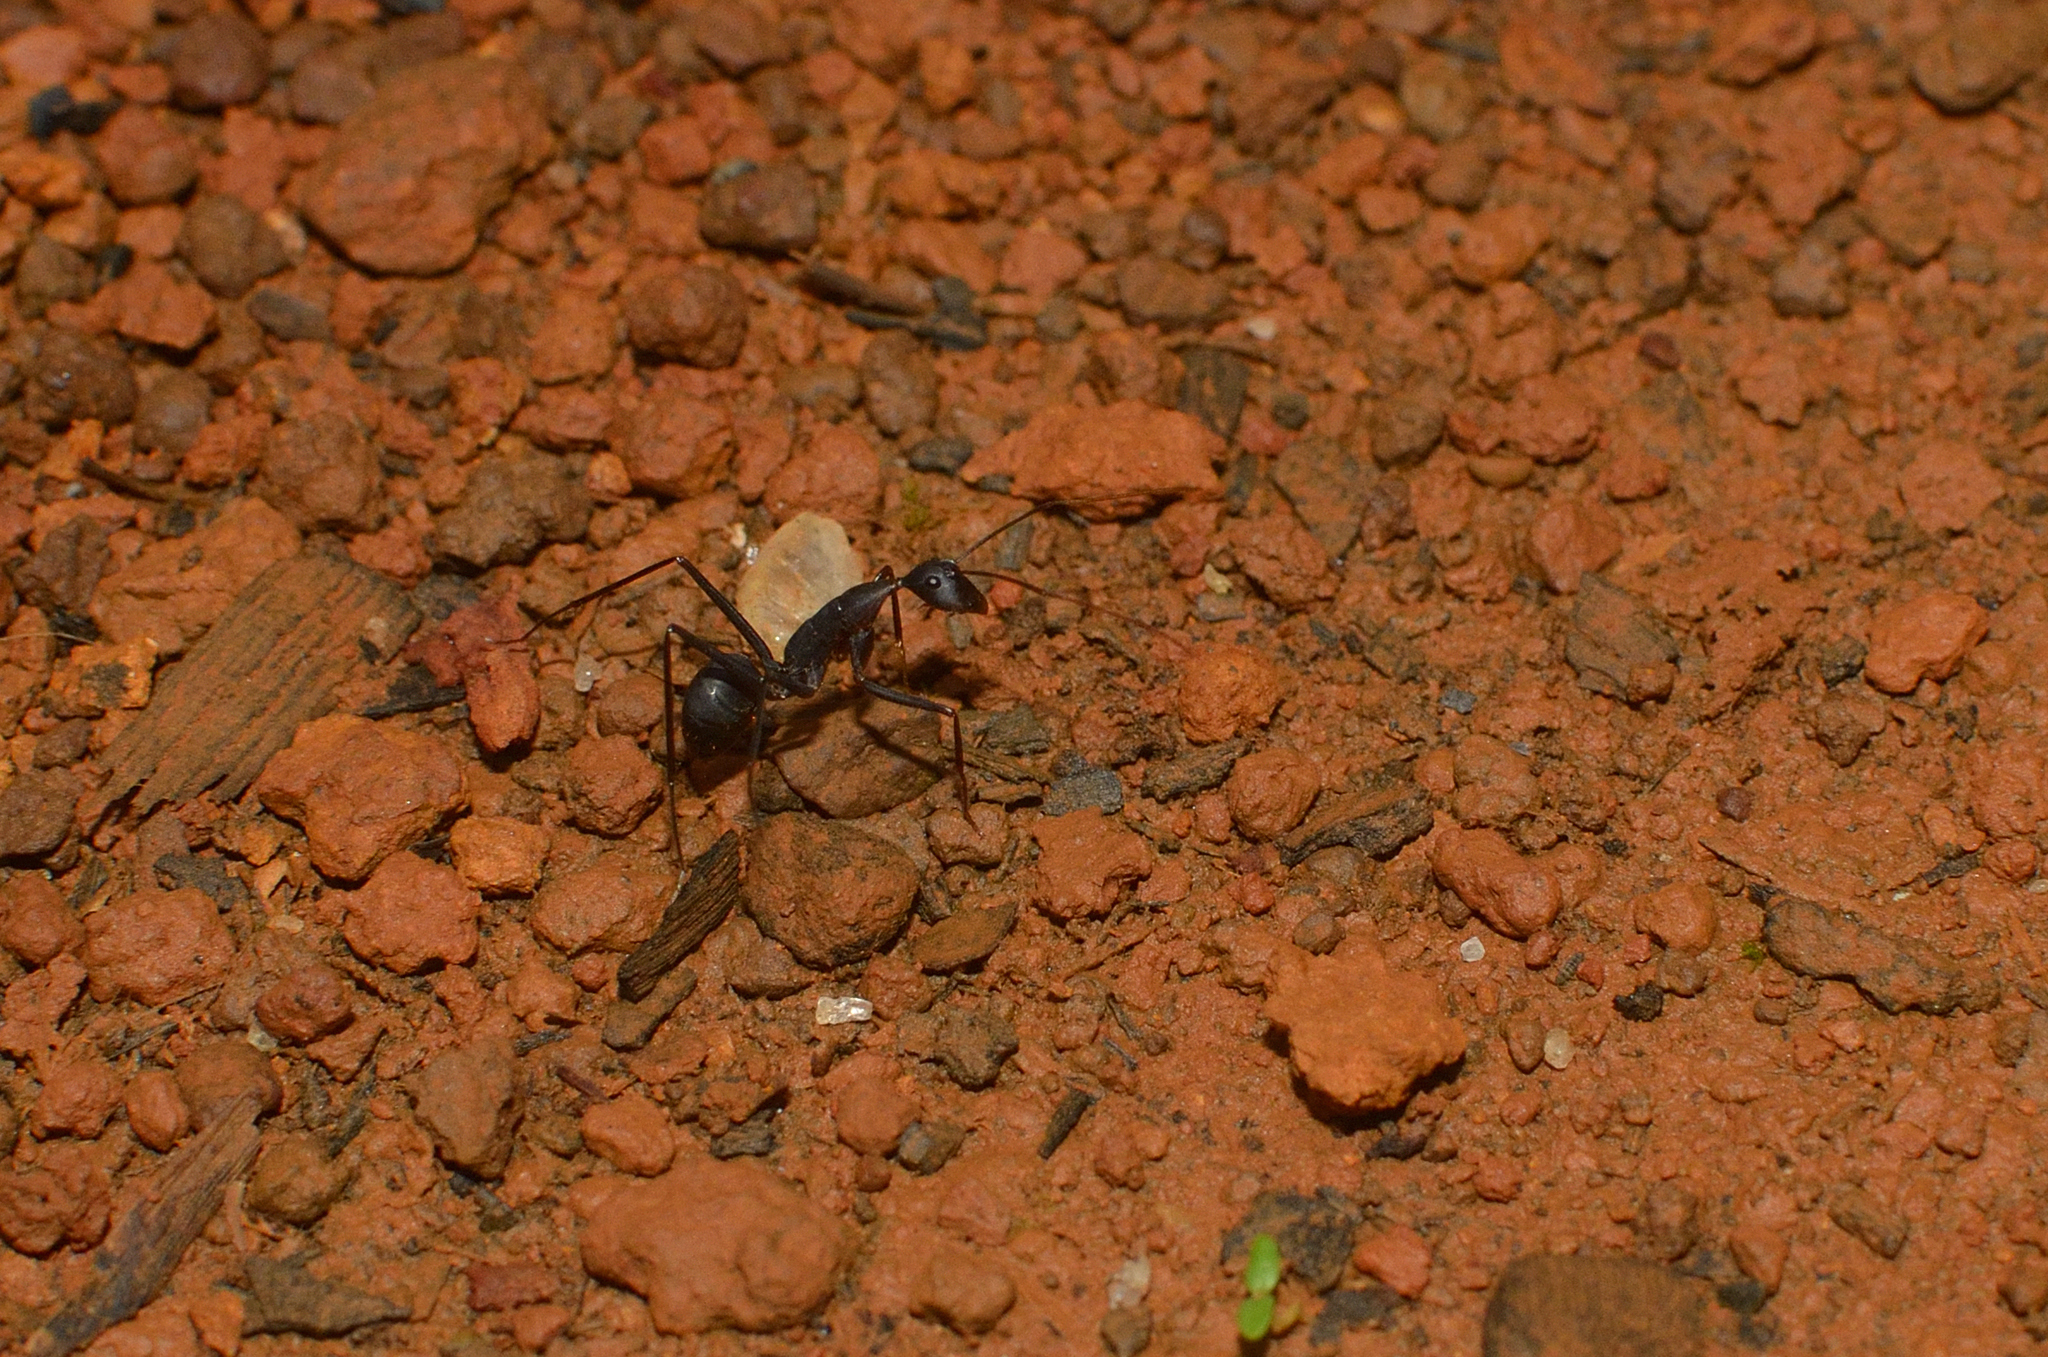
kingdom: Animalia
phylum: Arthropoda
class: Insecta
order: Hymenoptera
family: Formicidae
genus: Camponotus
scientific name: Camponotus angusticollis
